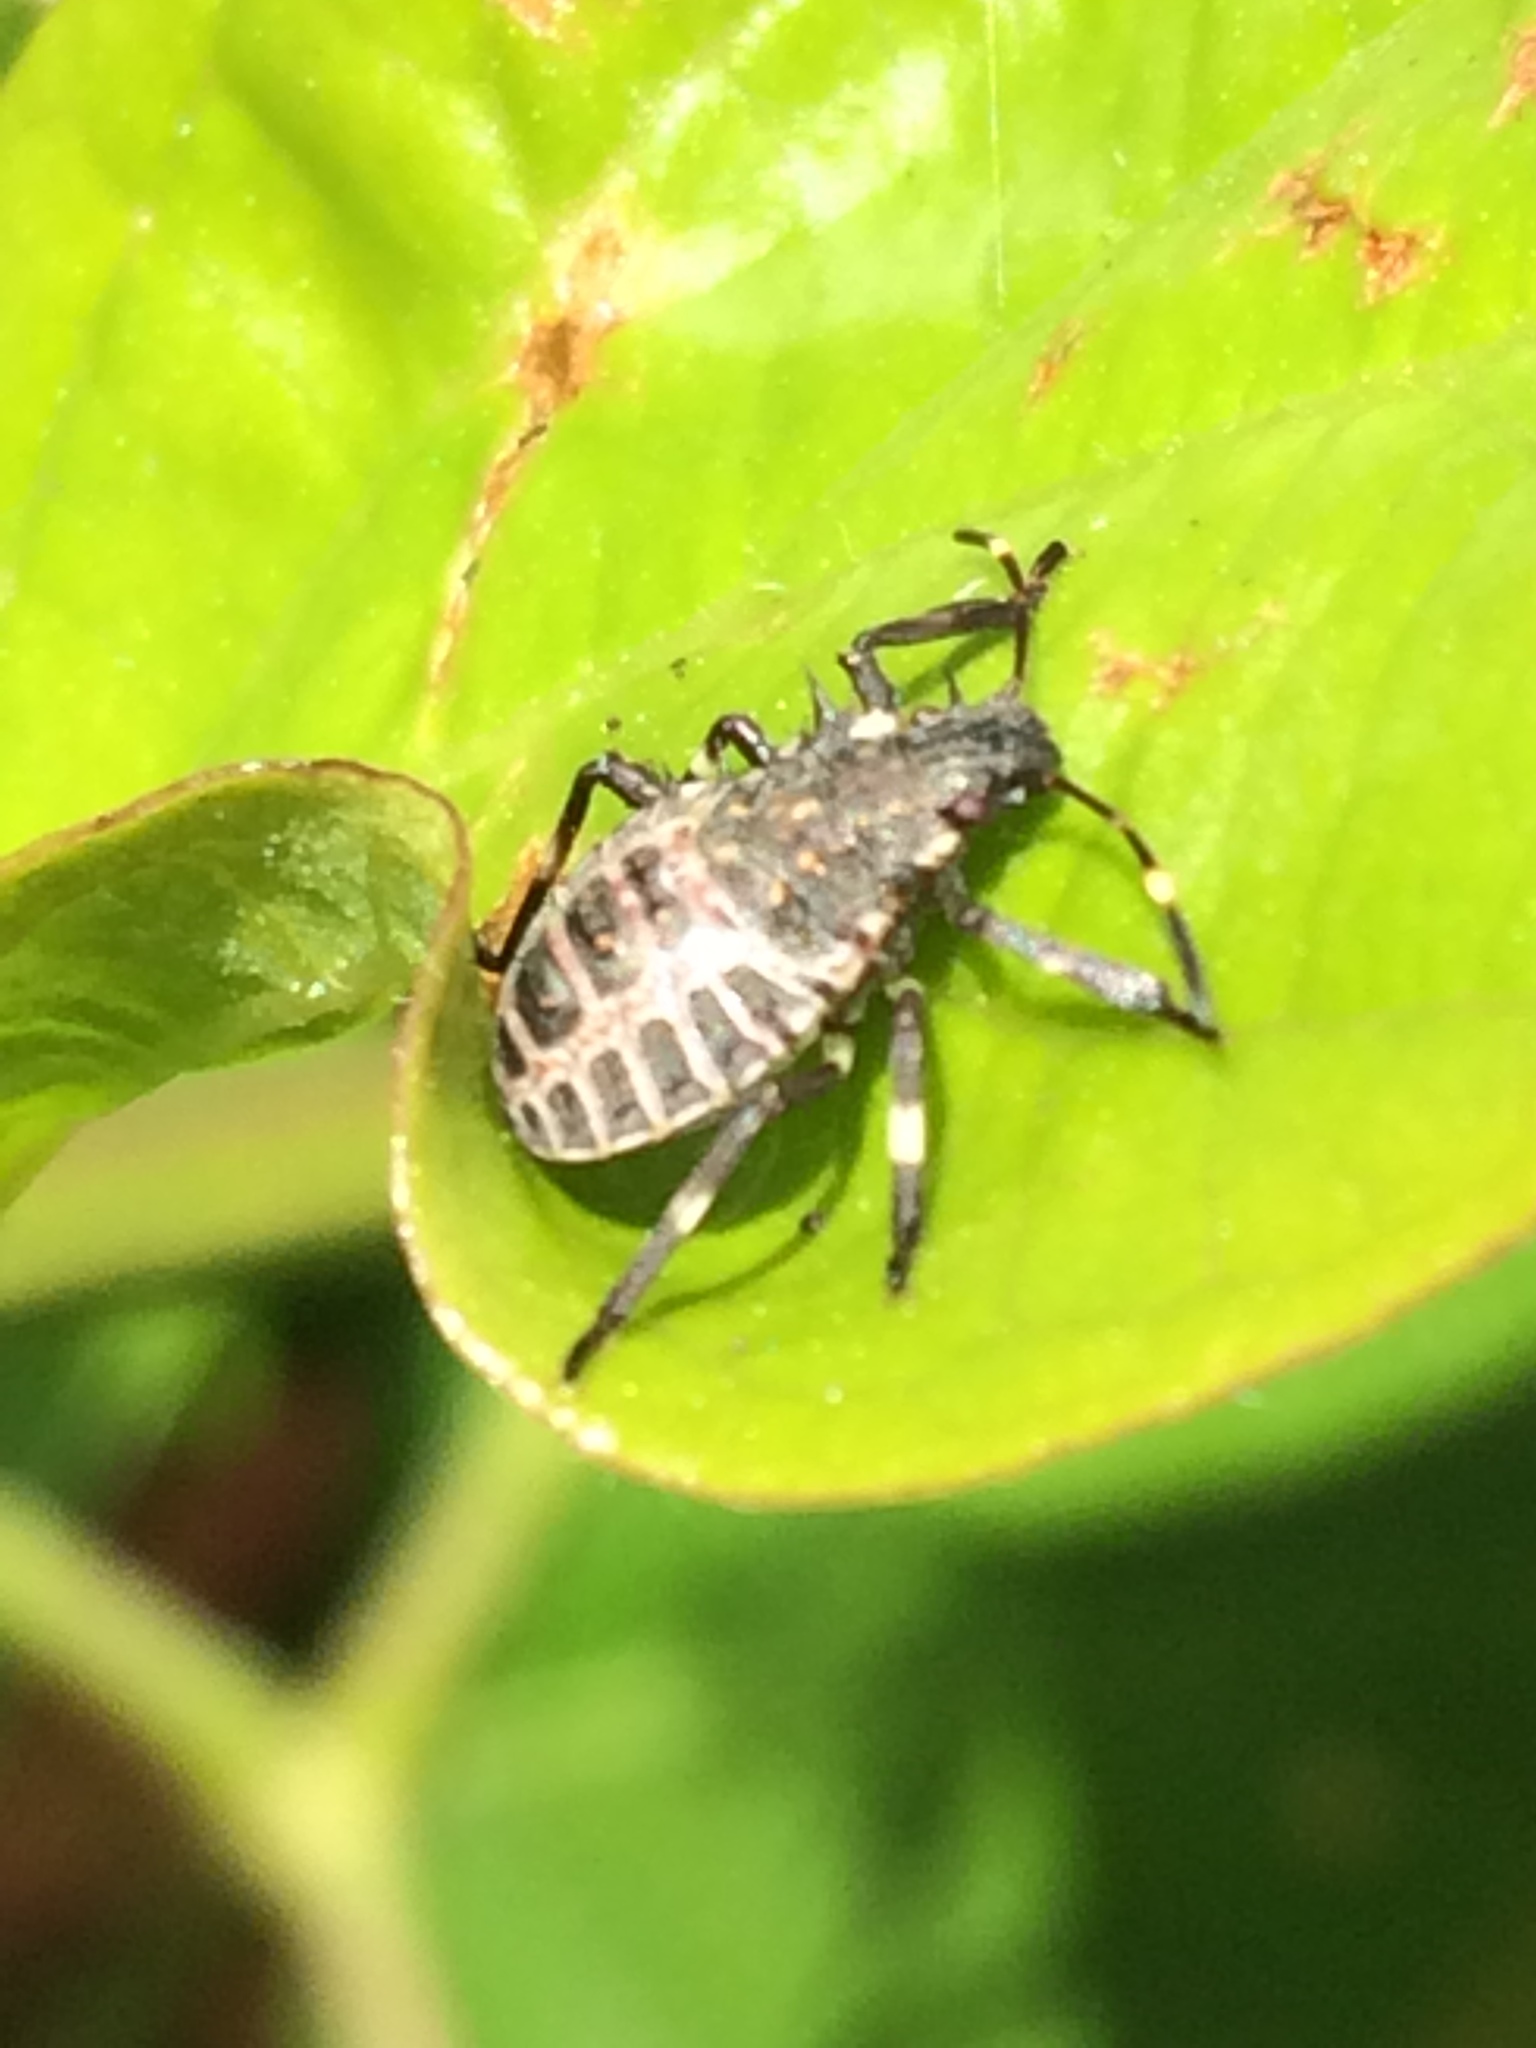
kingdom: Animalia
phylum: Arthropoda
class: Insecta
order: Hemiptera
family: Pentatomidae
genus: Halyomorpha
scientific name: Halyomorpha halys
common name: Brown marmorated stink bug
